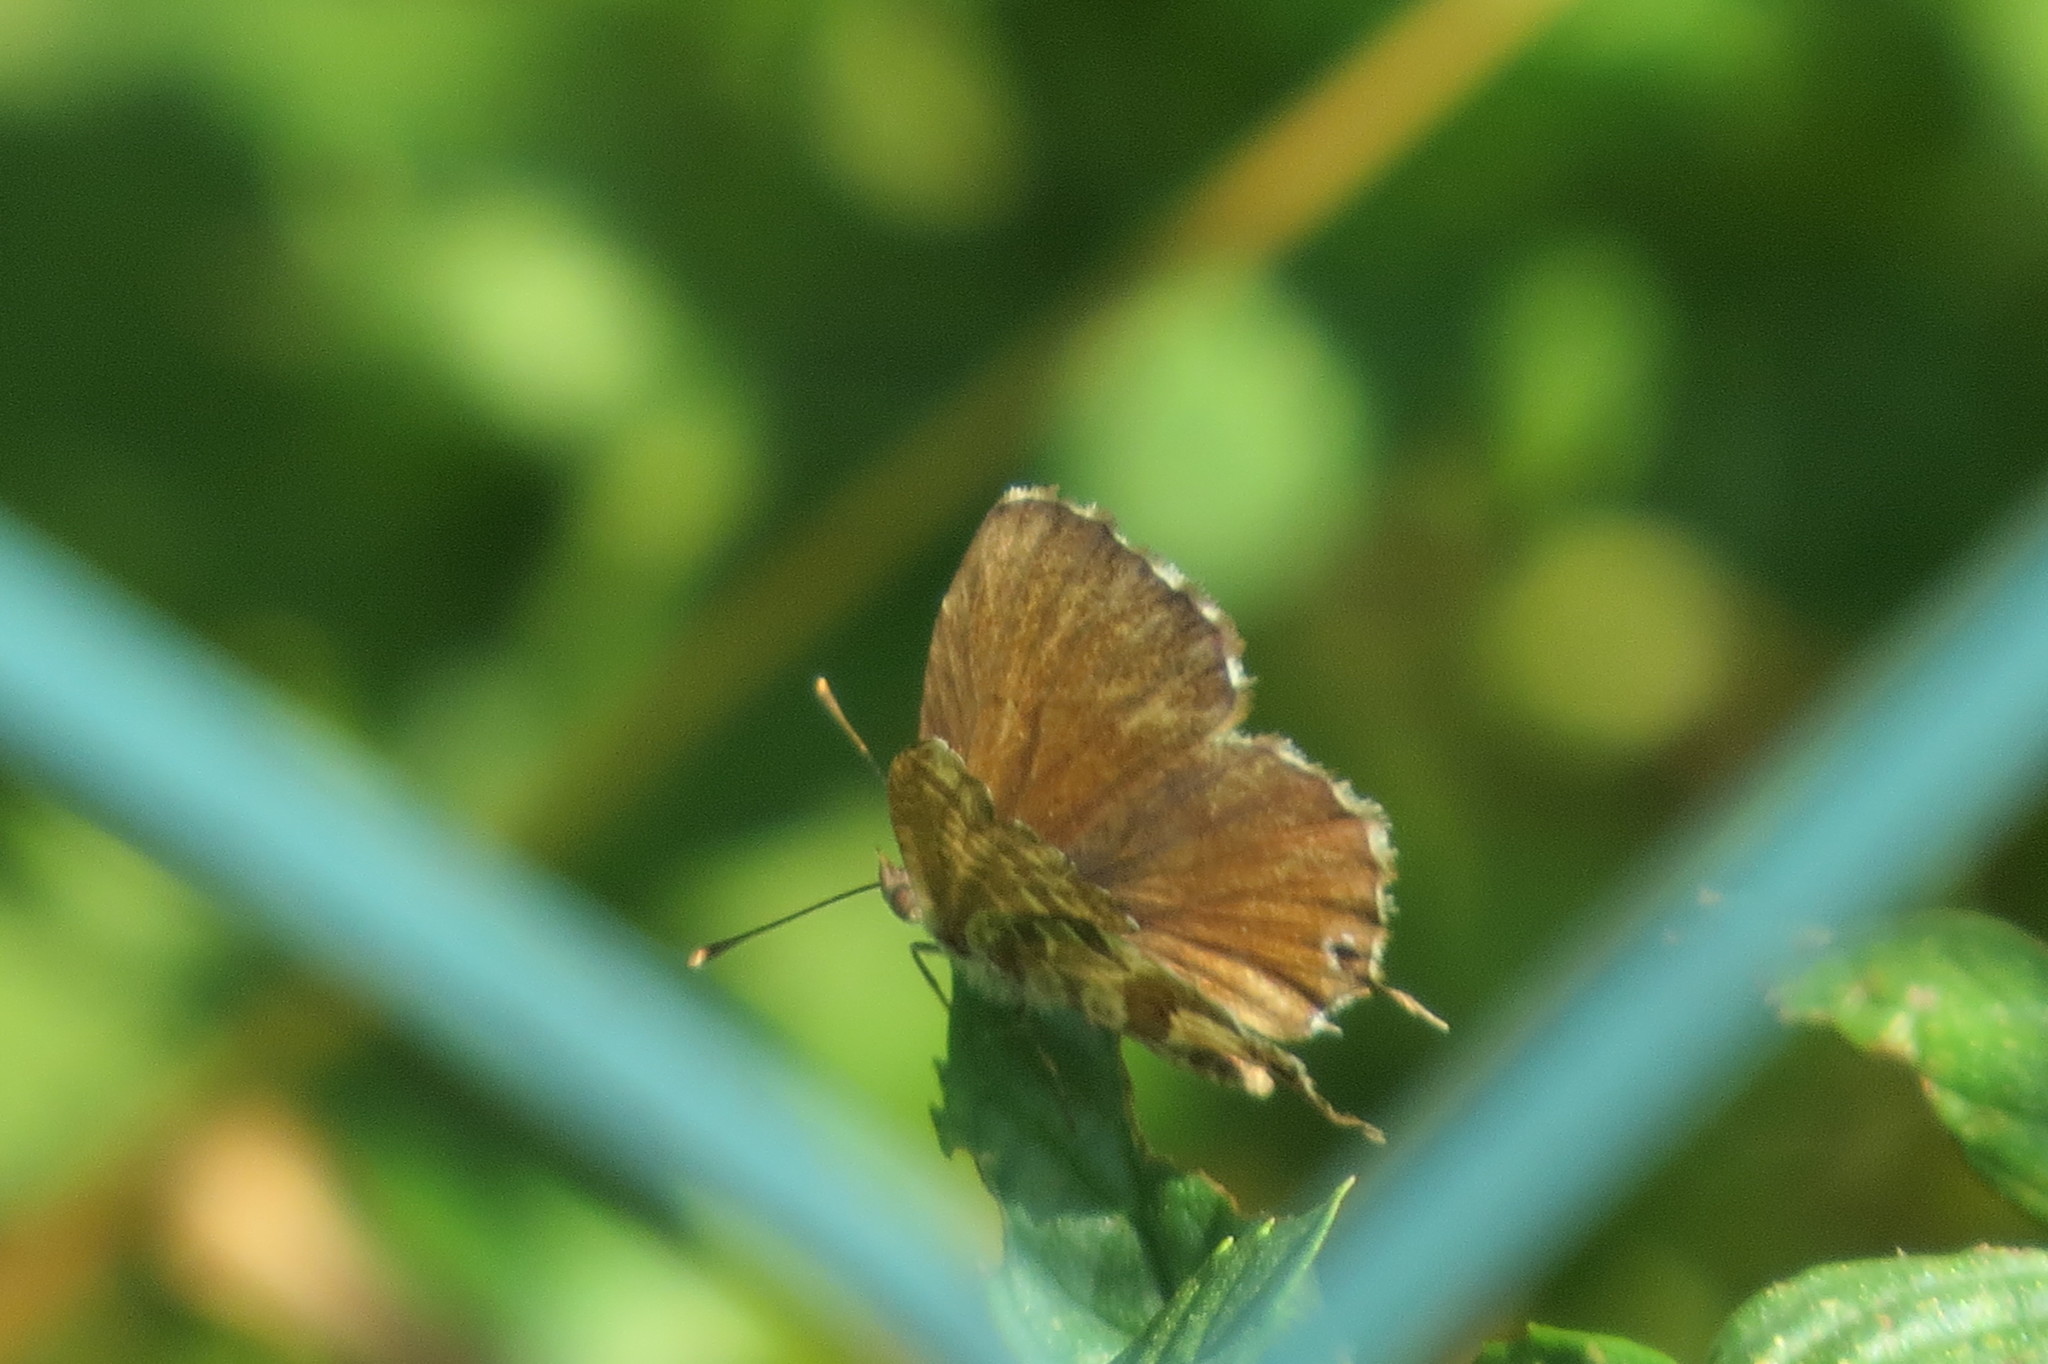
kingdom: Animalia
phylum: Arthropoda
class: Insecta
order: Lepidoptera
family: Lycaenidae
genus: Cacyreus
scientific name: Cacyreus marshalli
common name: Geranium bronze
